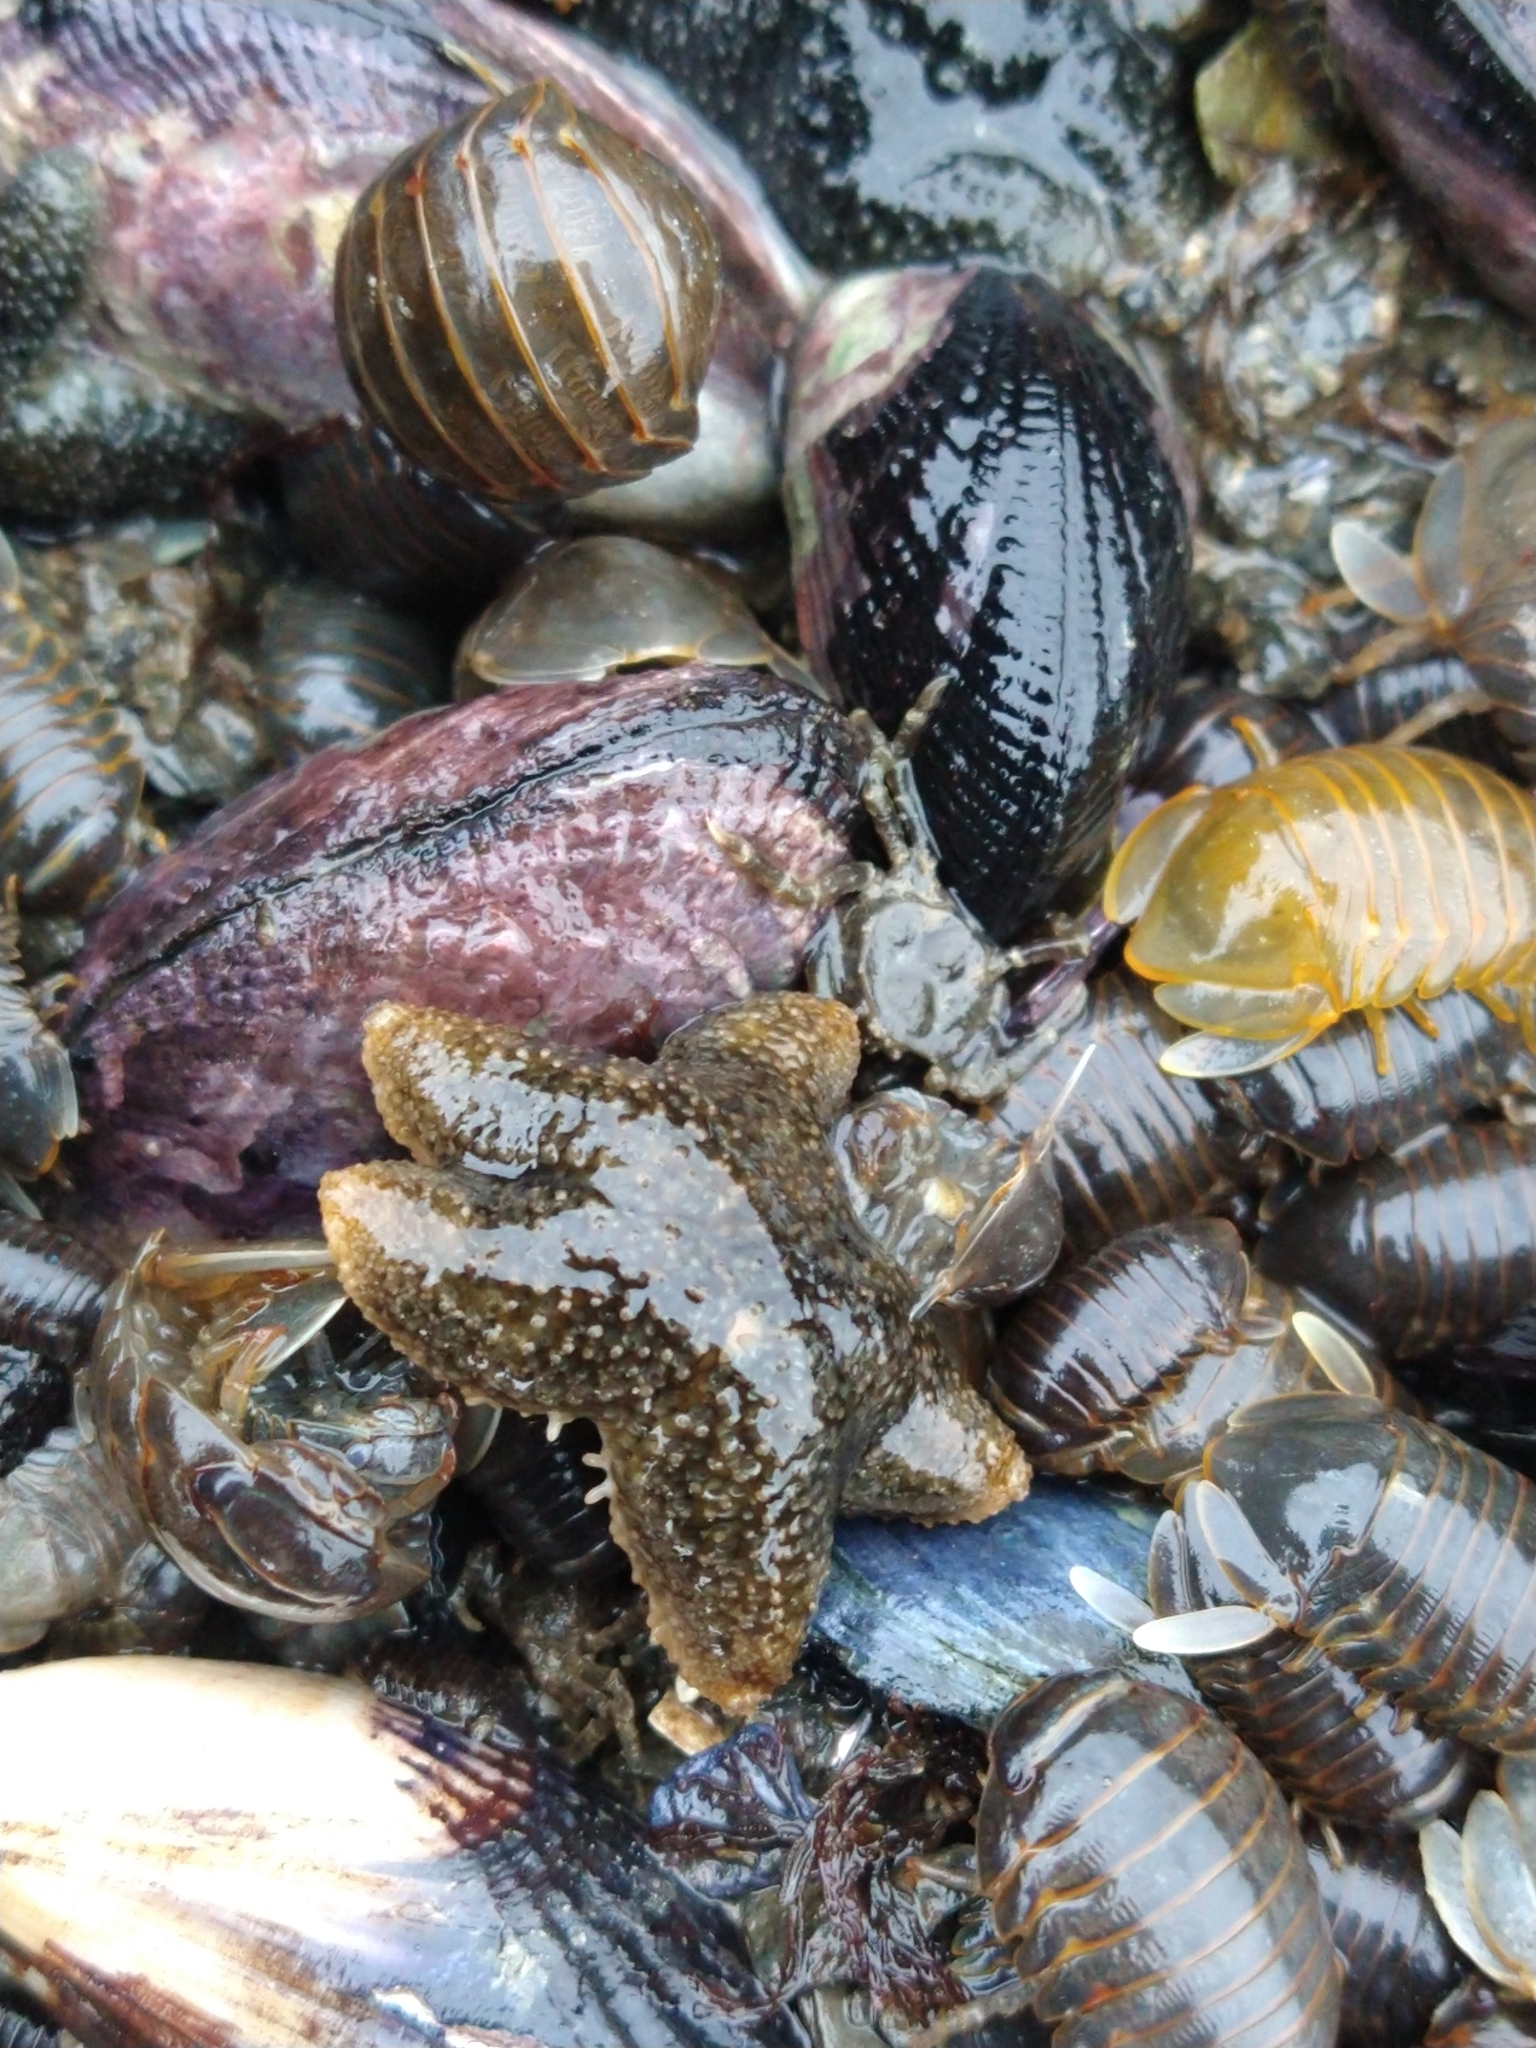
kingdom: Animalia
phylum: Echinodermata
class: Asteroidea
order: Forcipulatida
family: Asteriidae
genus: Anasterias
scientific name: Anasterias antarctica
